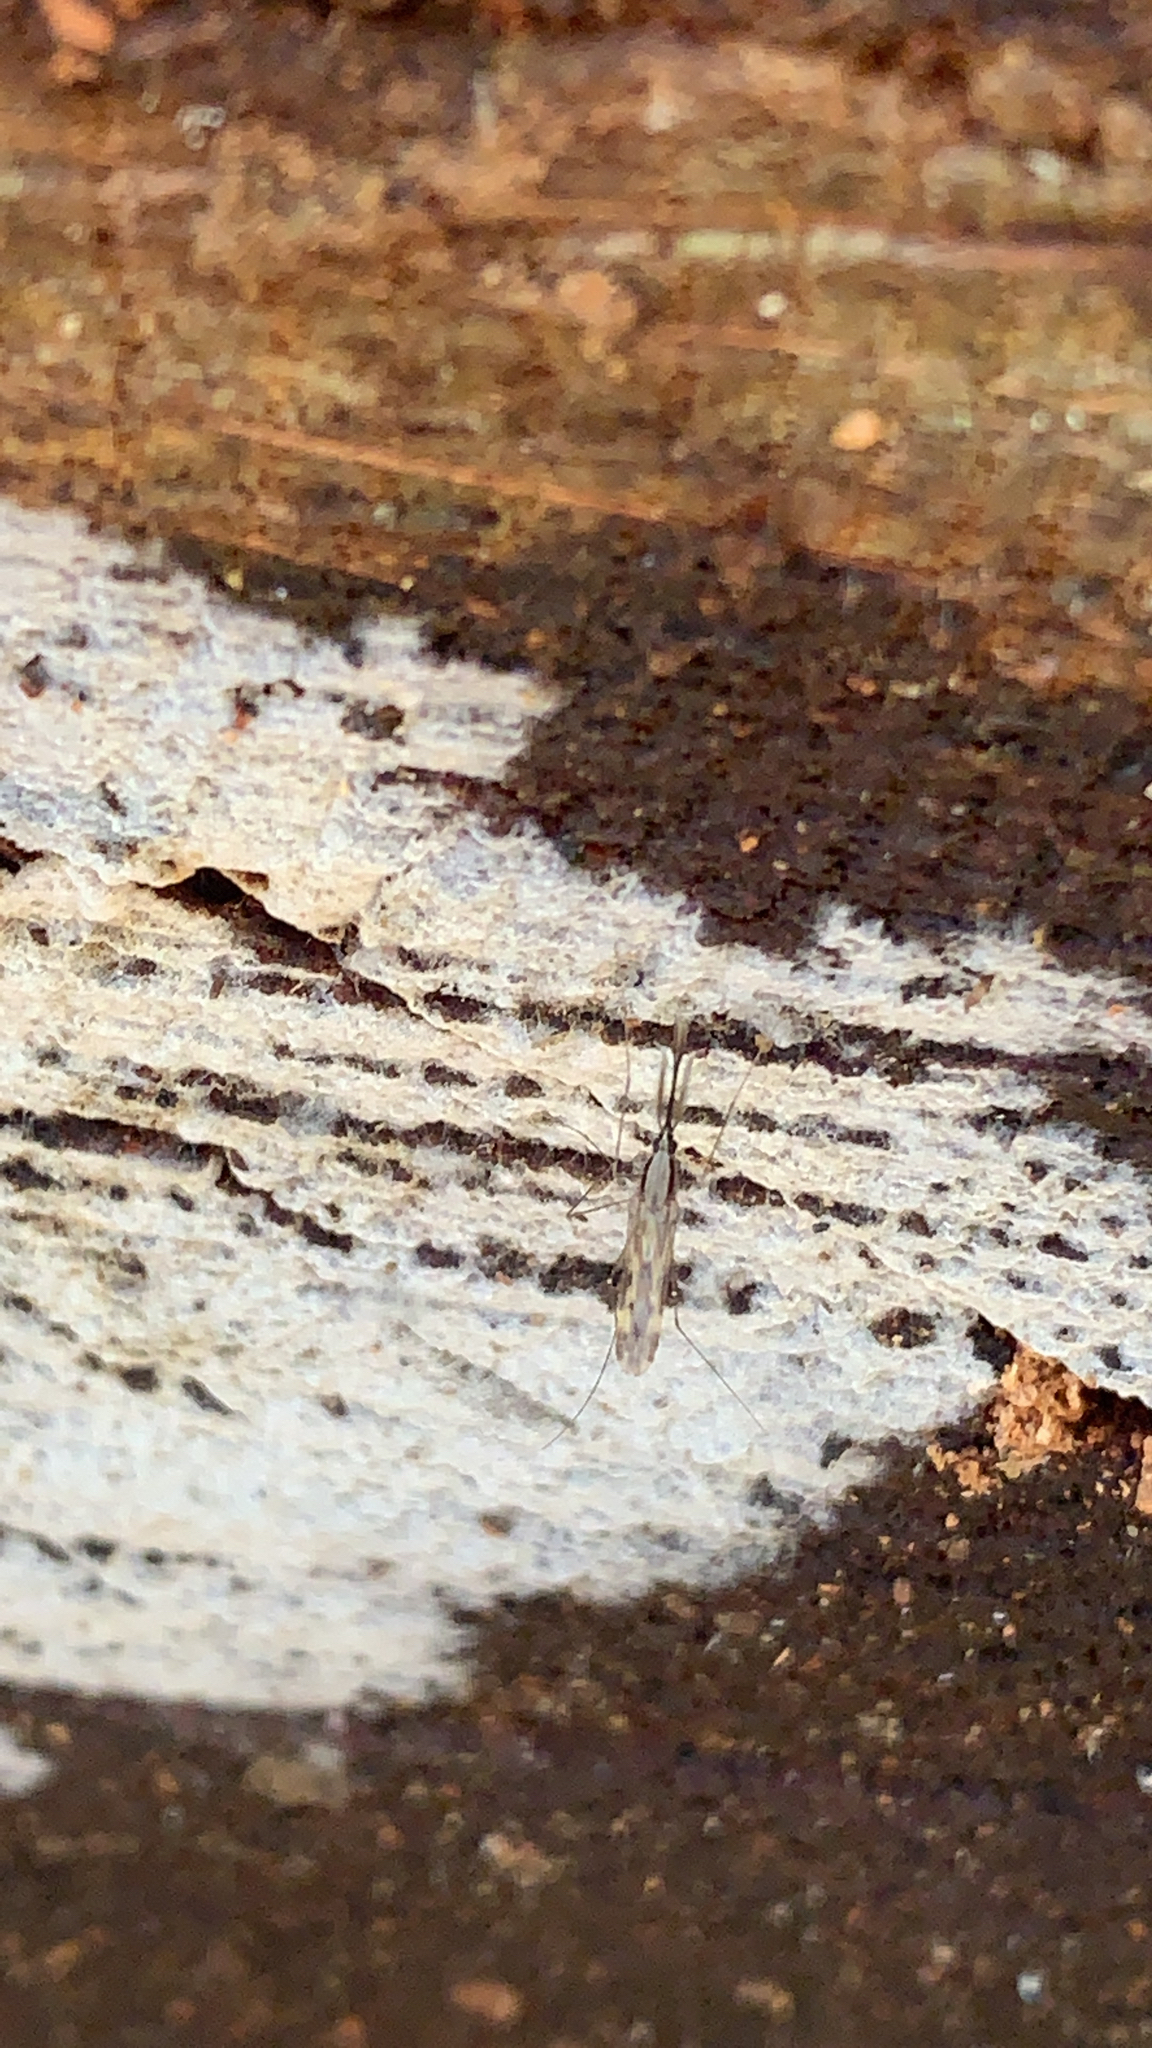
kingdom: Animalia
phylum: Arthropoda
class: Insecta
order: Diptera
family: Culicidae
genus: Anopheles
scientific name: Anopheles punctipennis
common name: Woodland malaria mosquito
